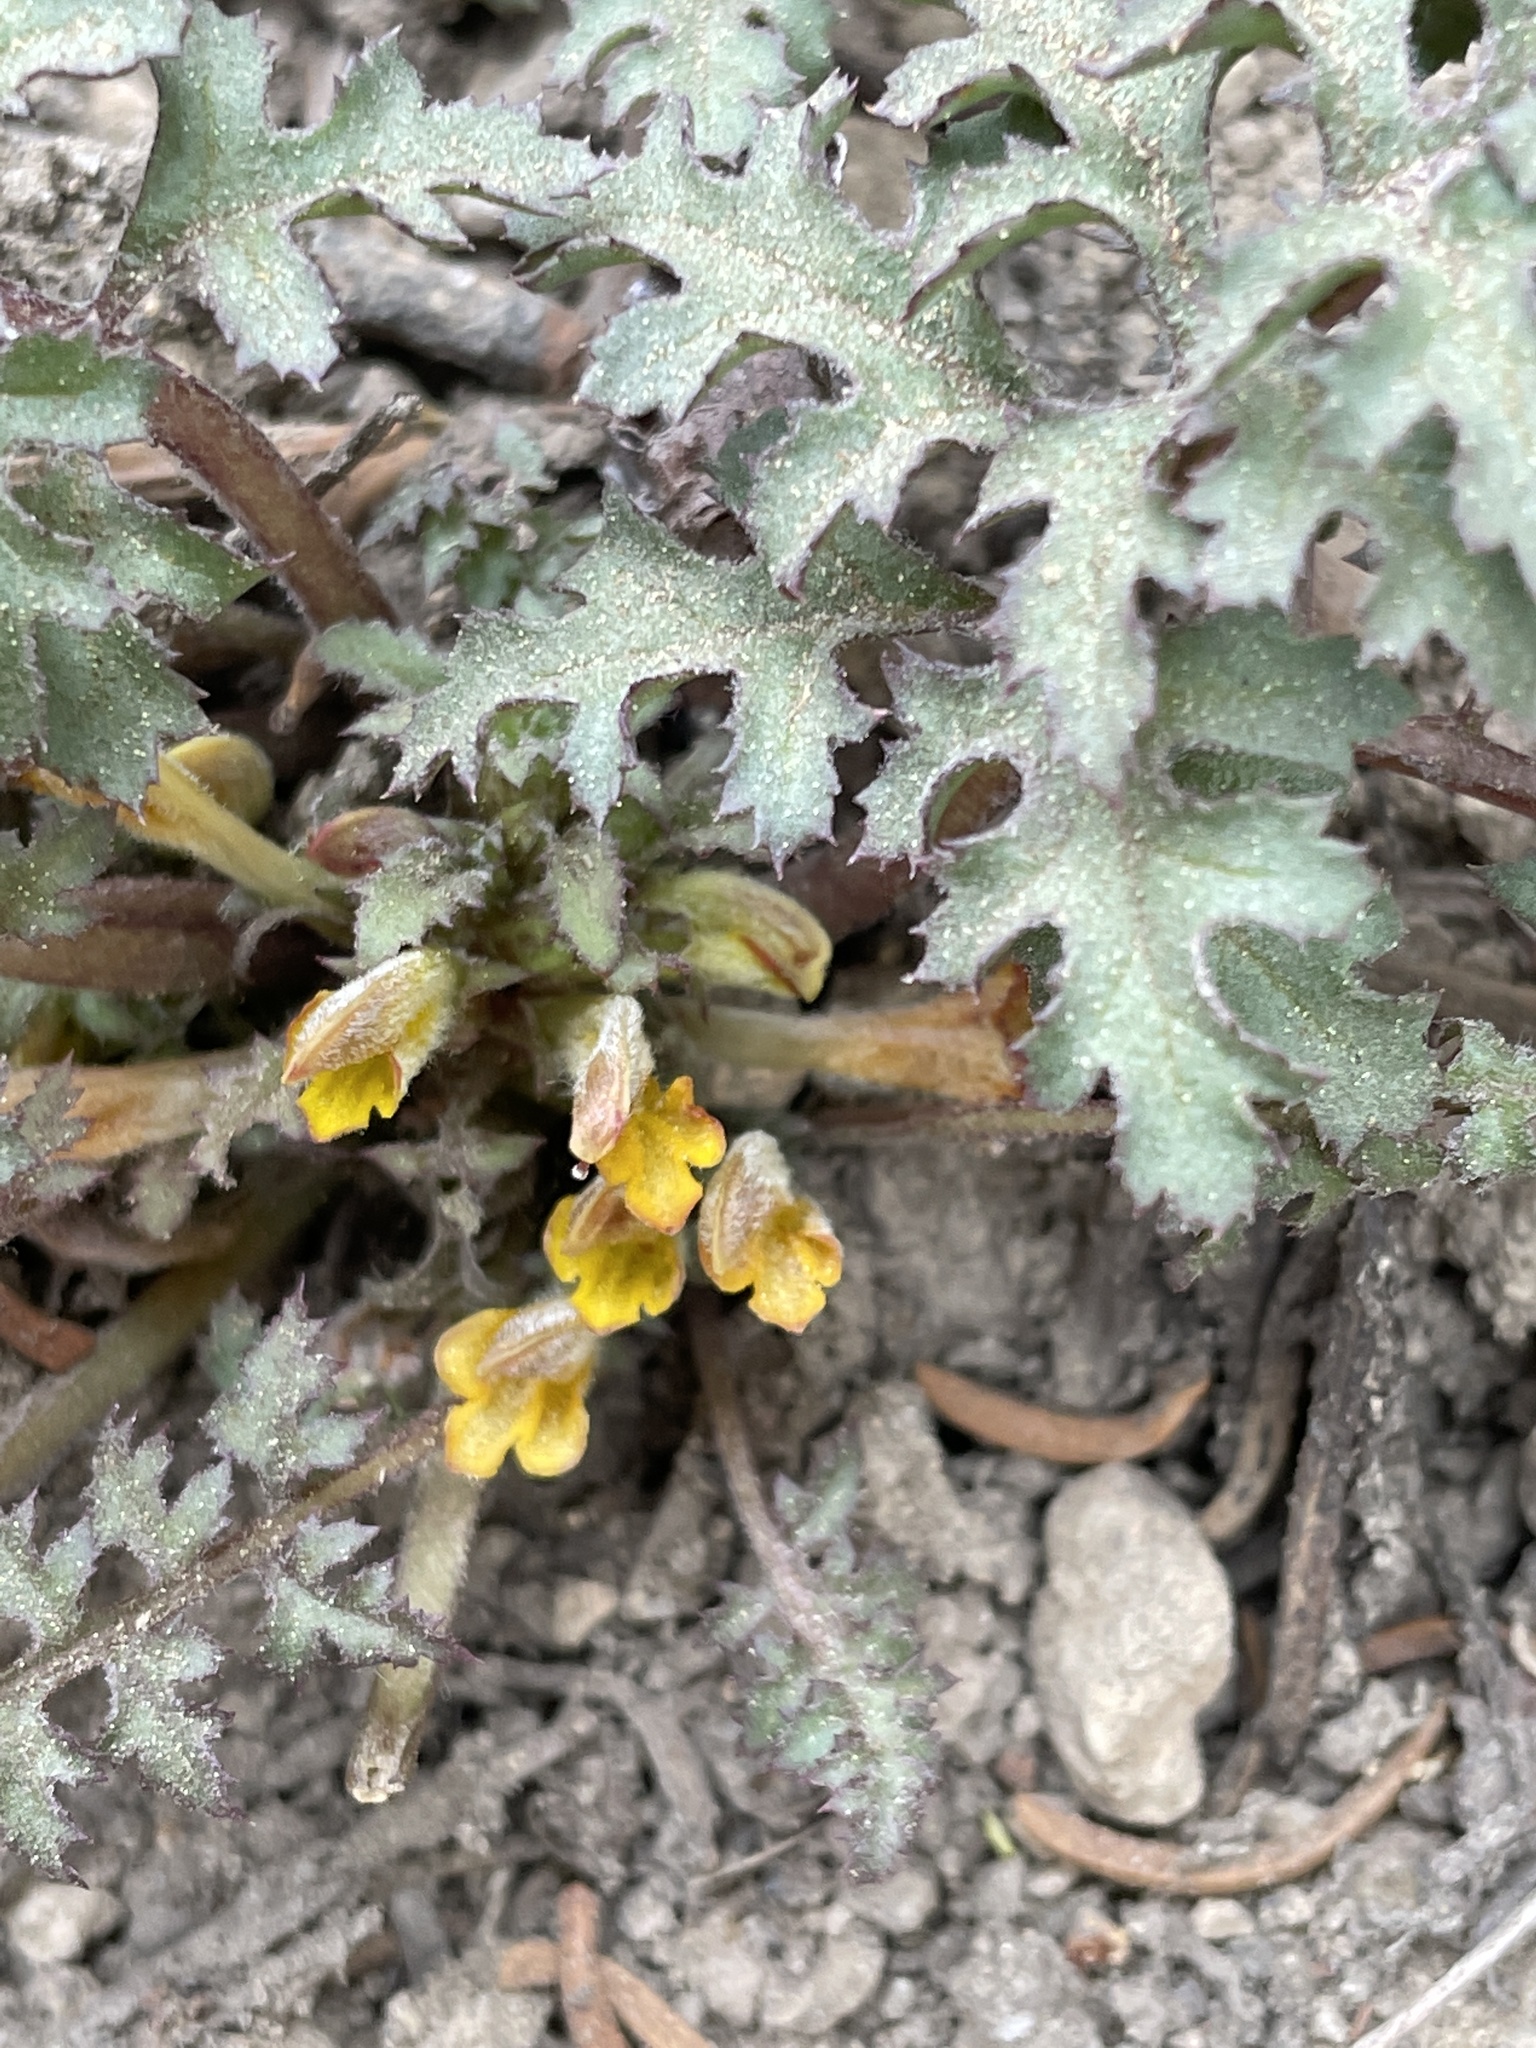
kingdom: Plantae
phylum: Tracheophyta
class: Magnoliopsida
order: Lamiales
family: Orobanchaceae
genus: Pedicularis
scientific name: Pedicularis semibarbata
